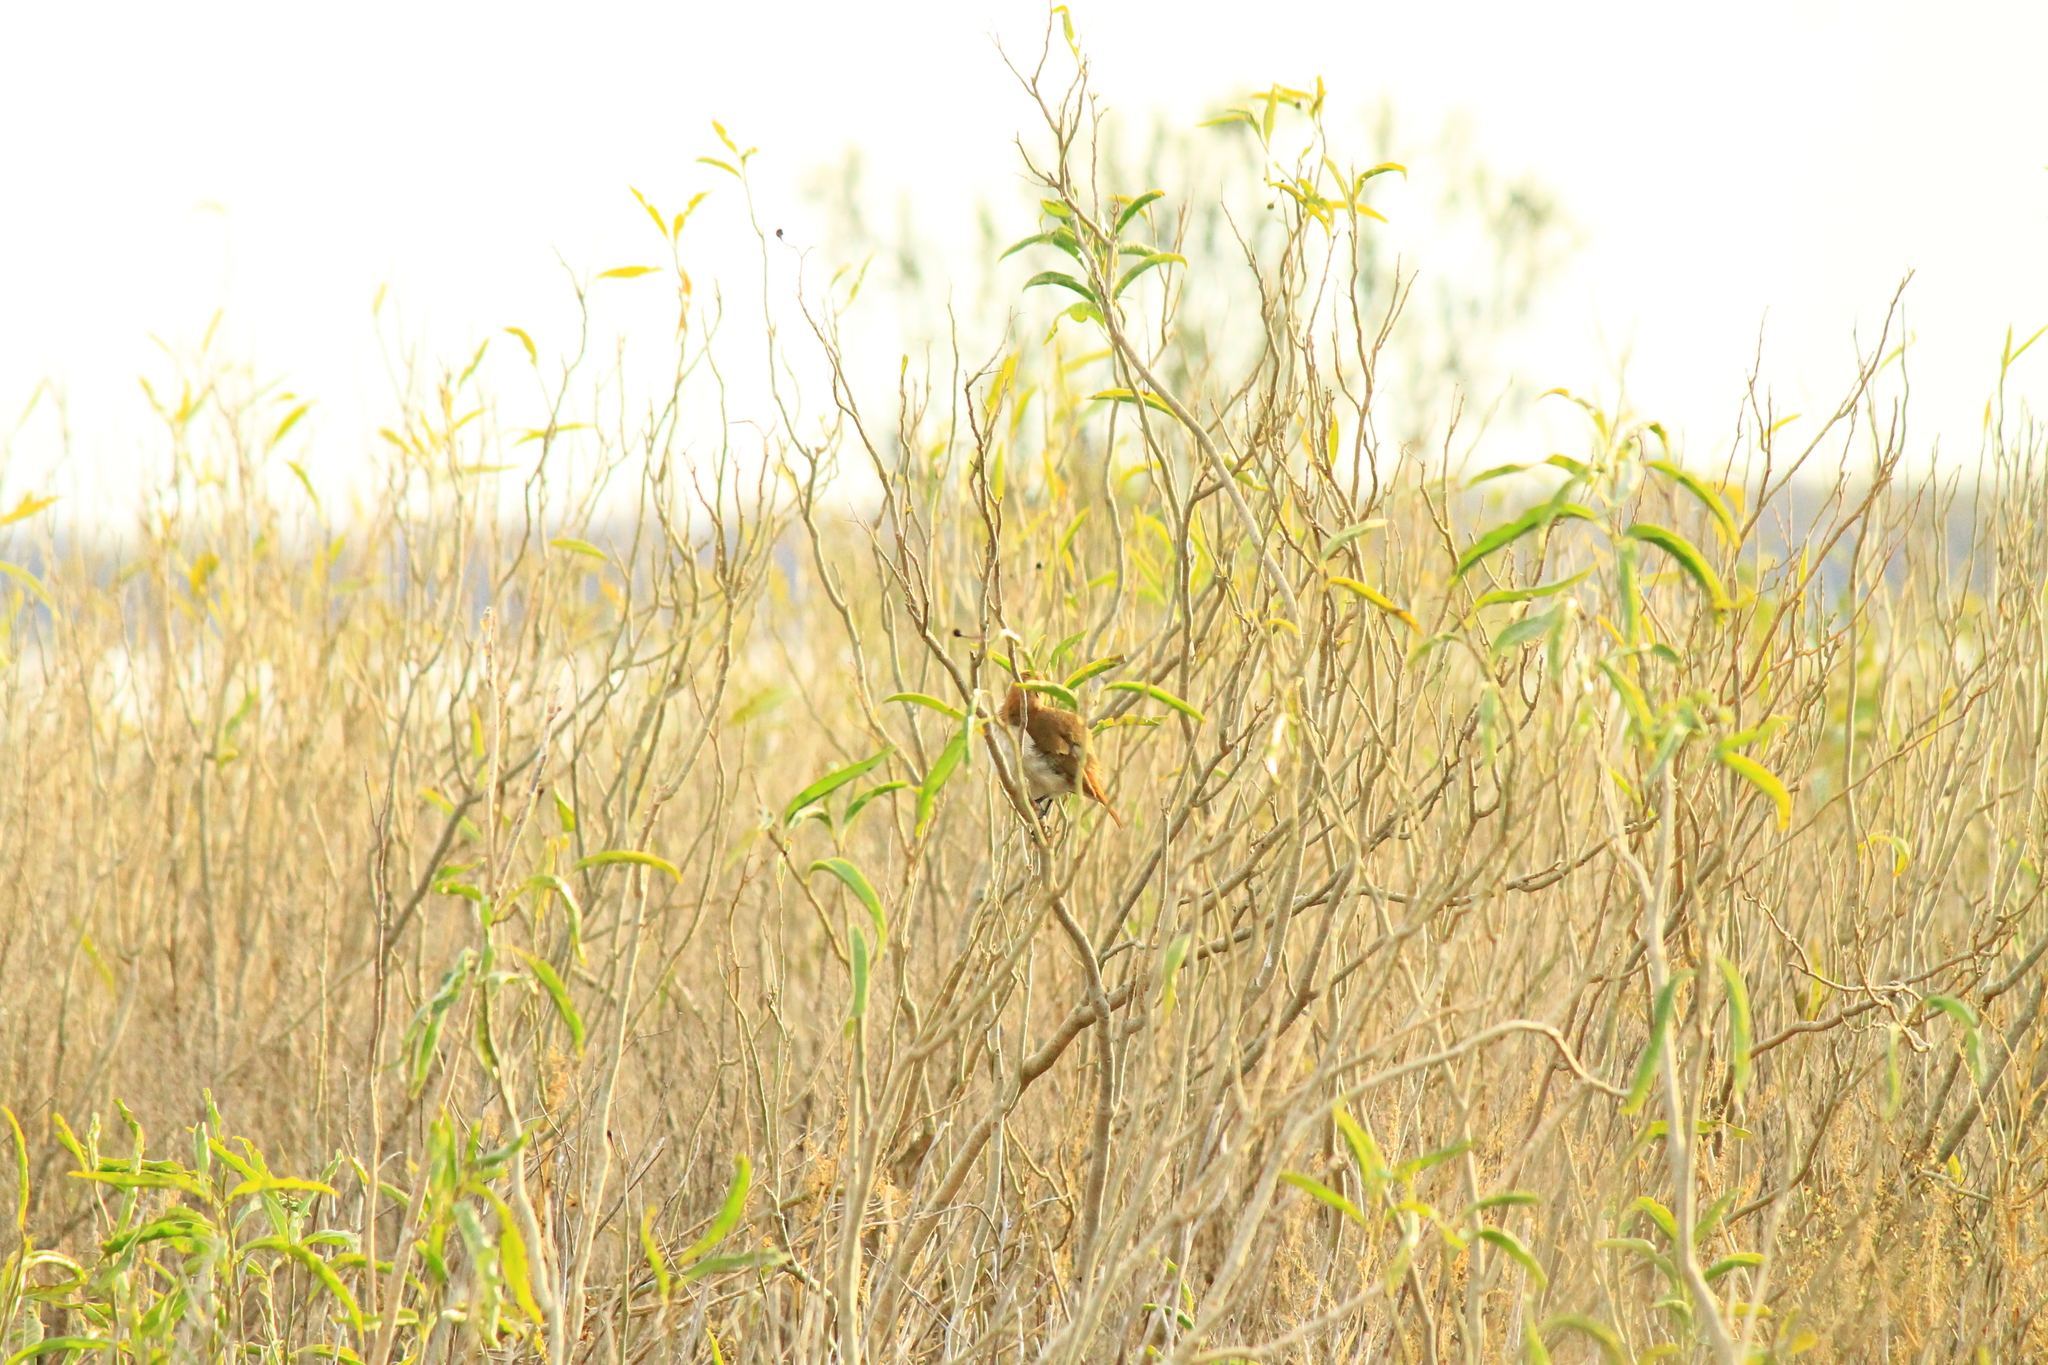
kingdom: Animalia
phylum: Chordata
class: Aves
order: Passeriformes
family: Furnariidae
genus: Furnarius
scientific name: Furnarius rufus
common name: Rufous hornero
